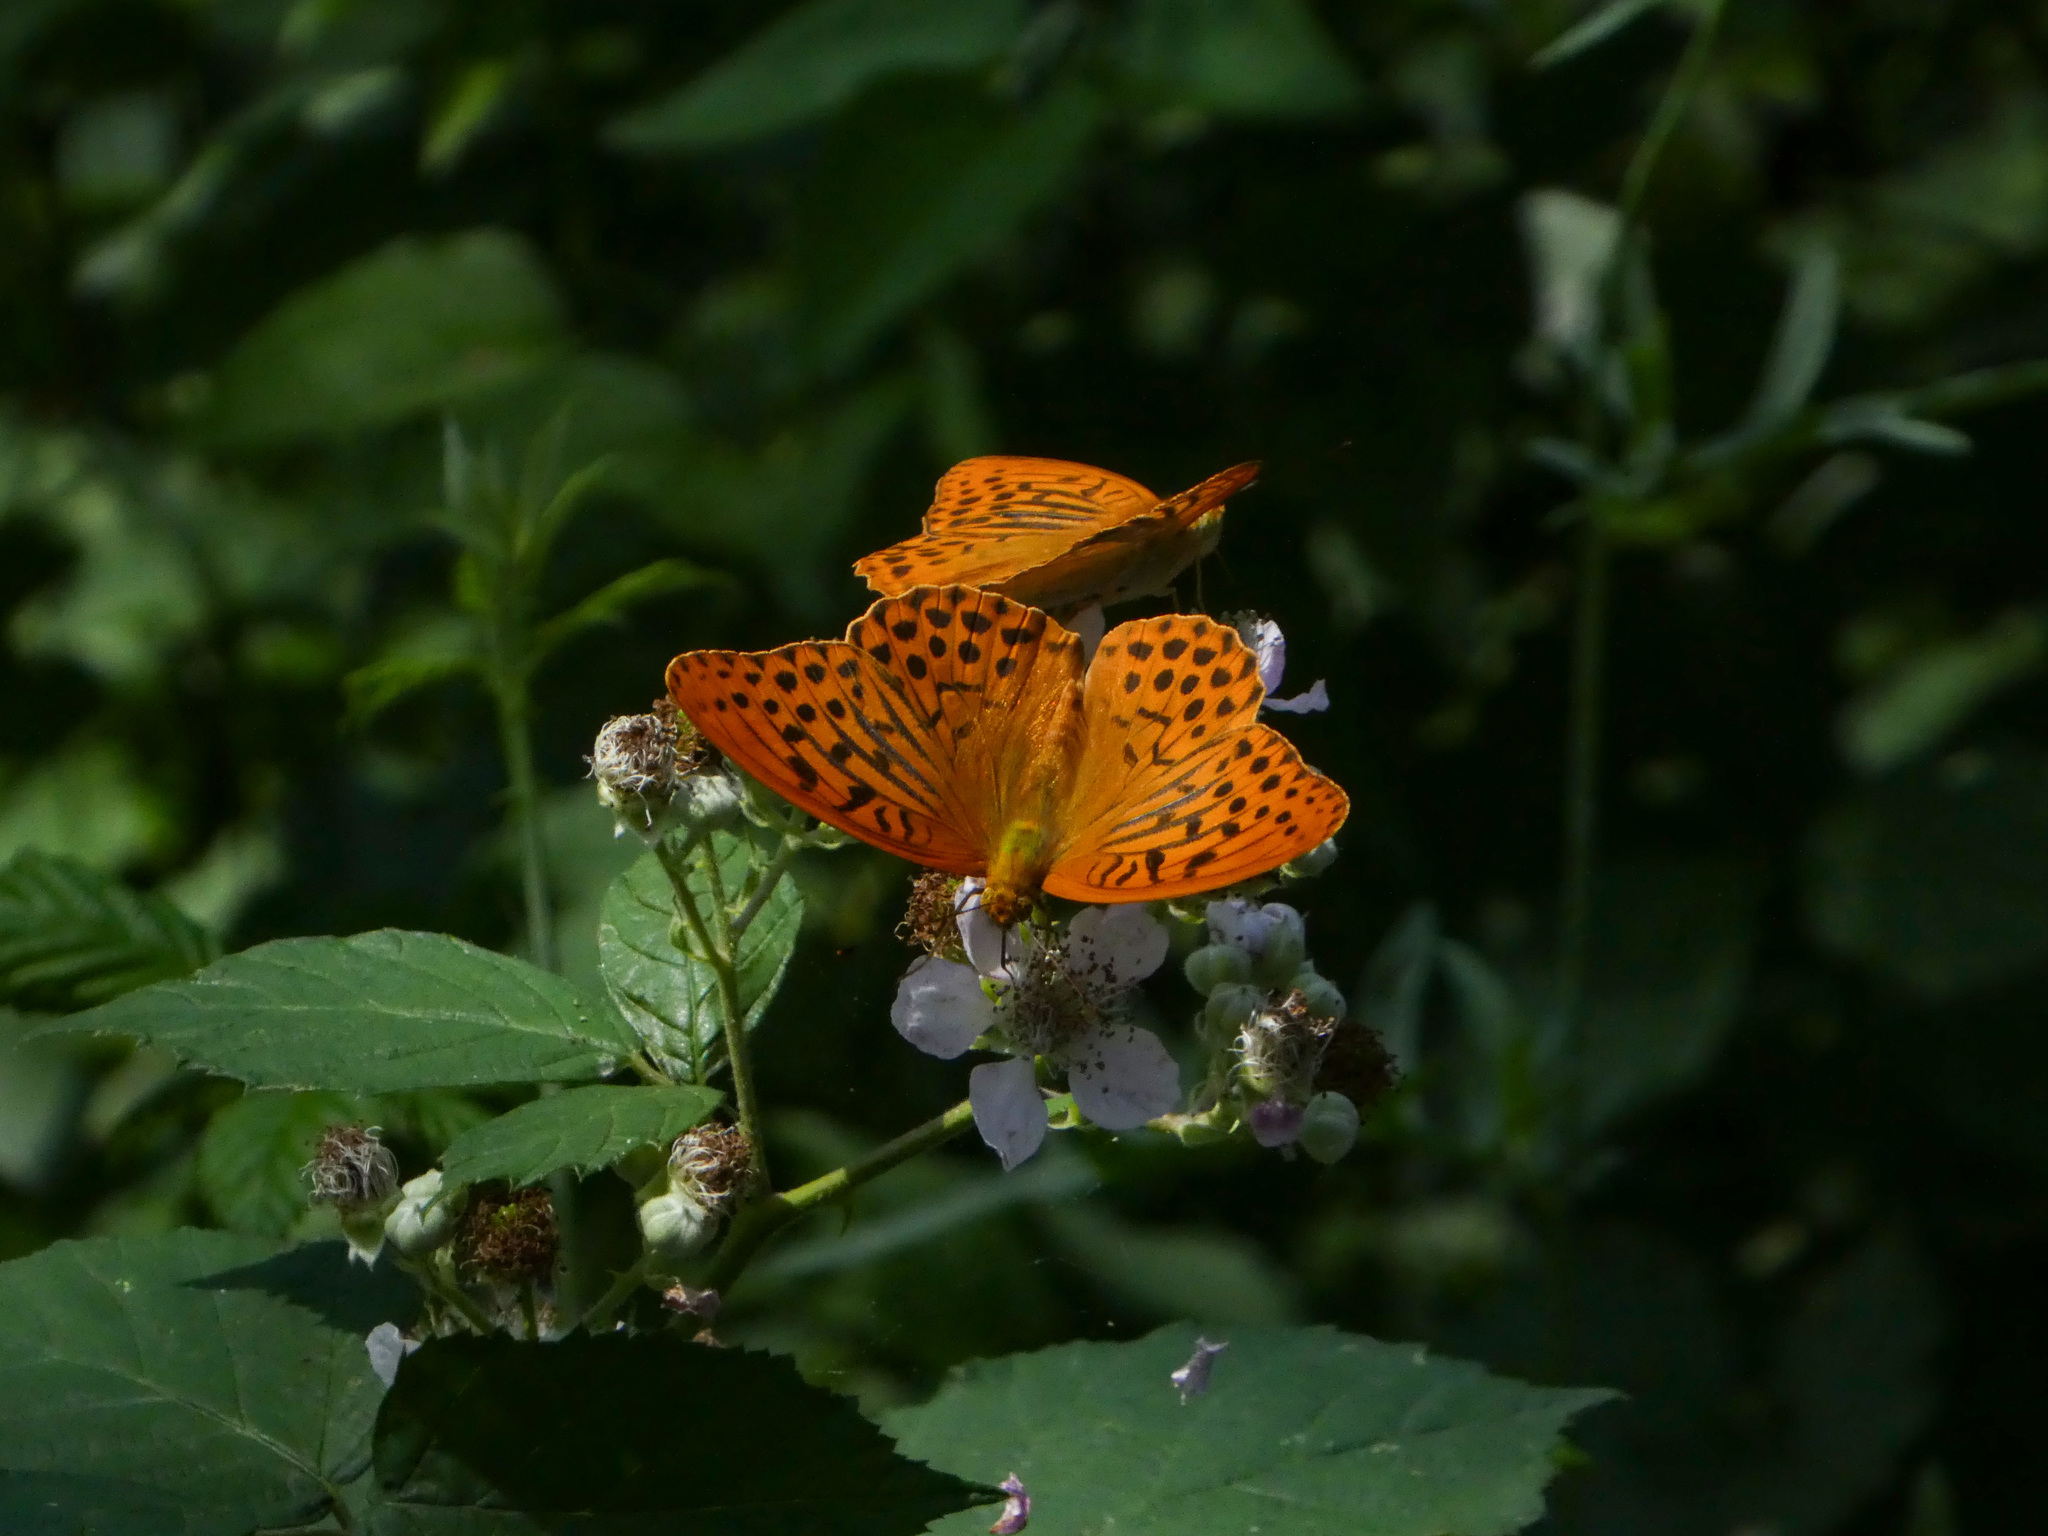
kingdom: Animalia
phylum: Arthropoda
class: Insecta
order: Lepidoptera
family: Nymphalidae
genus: Argynnis
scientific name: Argynnis paphia
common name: Silver-washed fritillary
